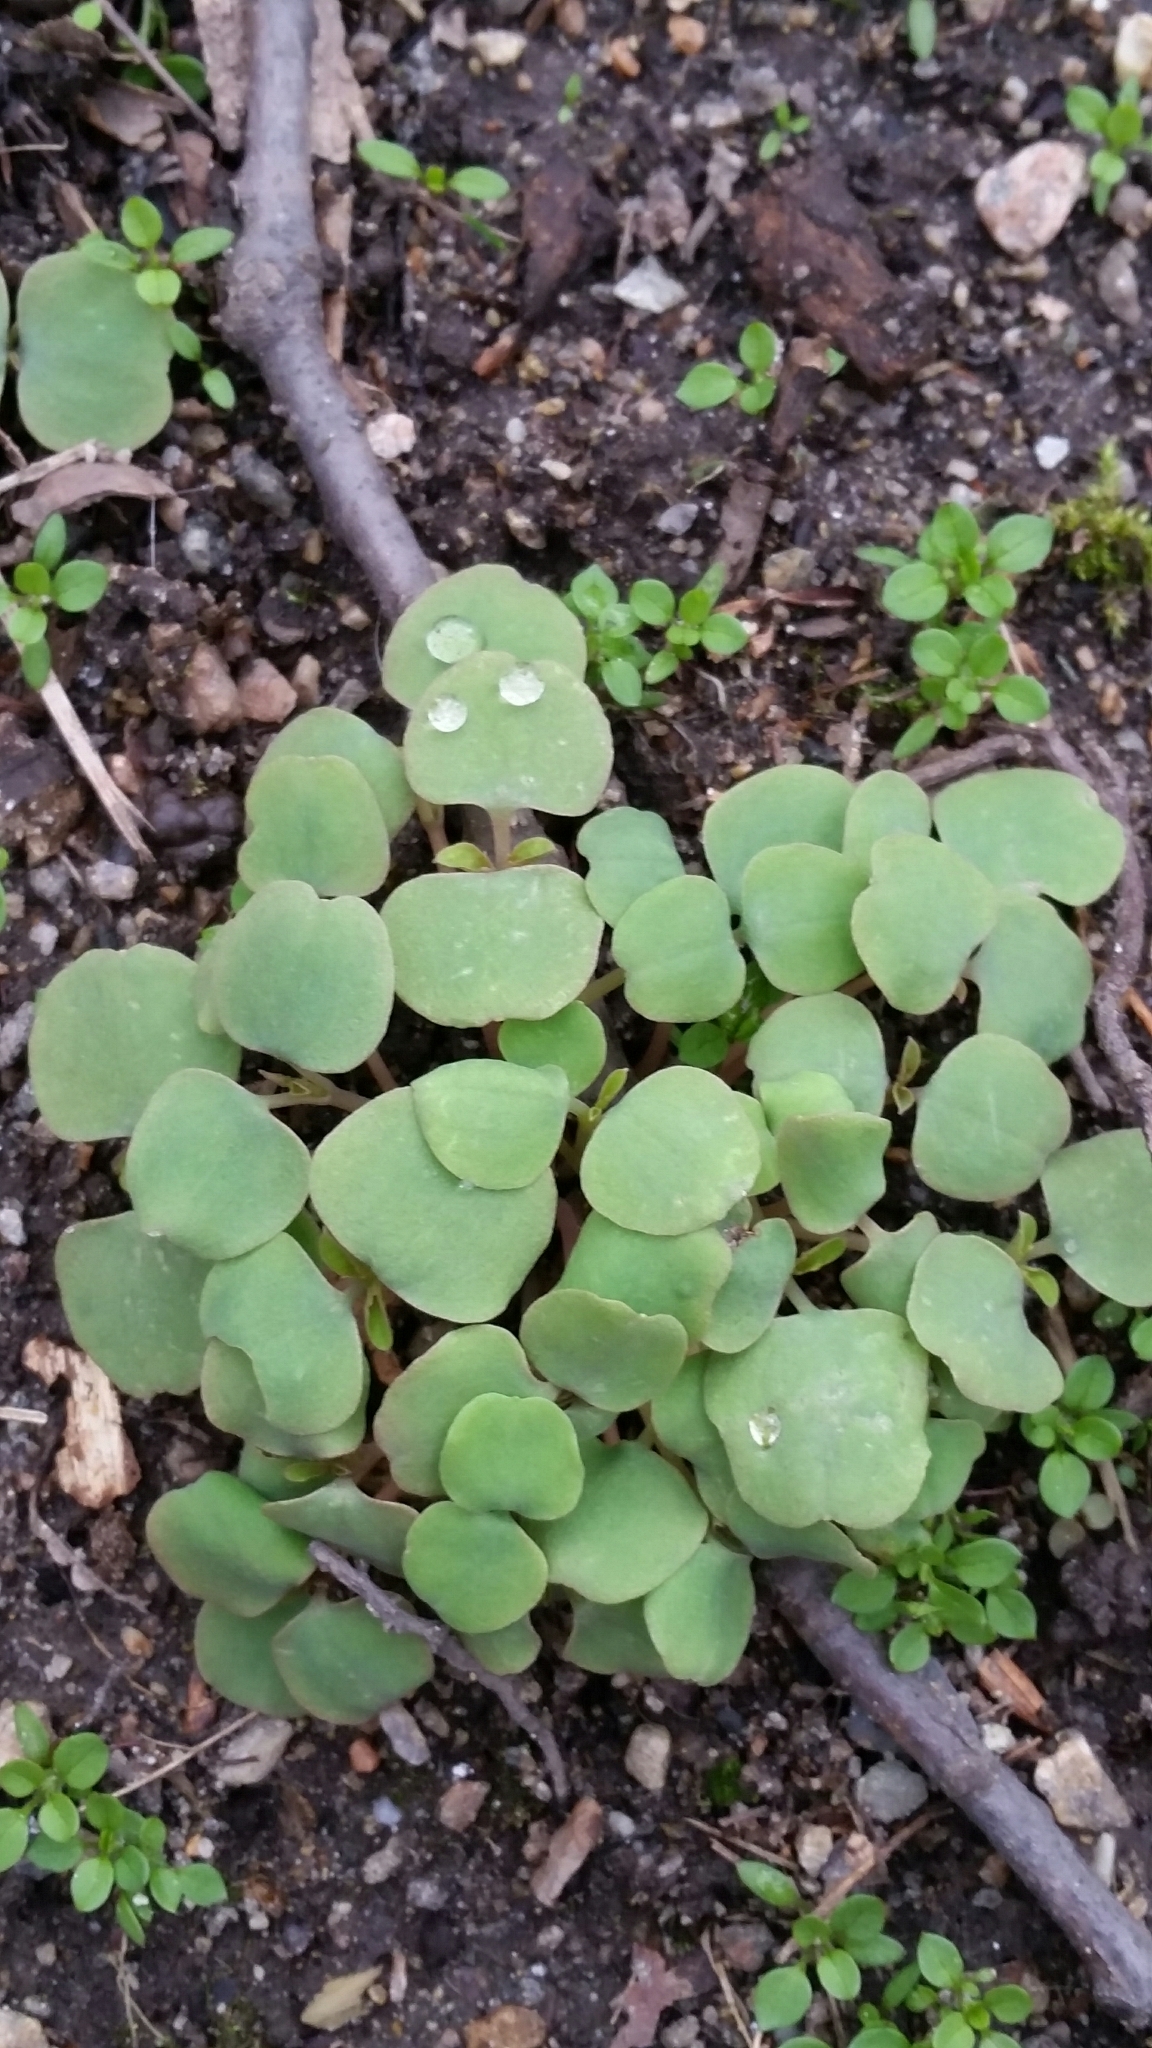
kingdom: Plantae
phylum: Tracheophyta
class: Magnoliopsida
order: Ericales
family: Balsaminaceae
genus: Impatiens
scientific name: Impatiens capensis
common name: Orange balsam
